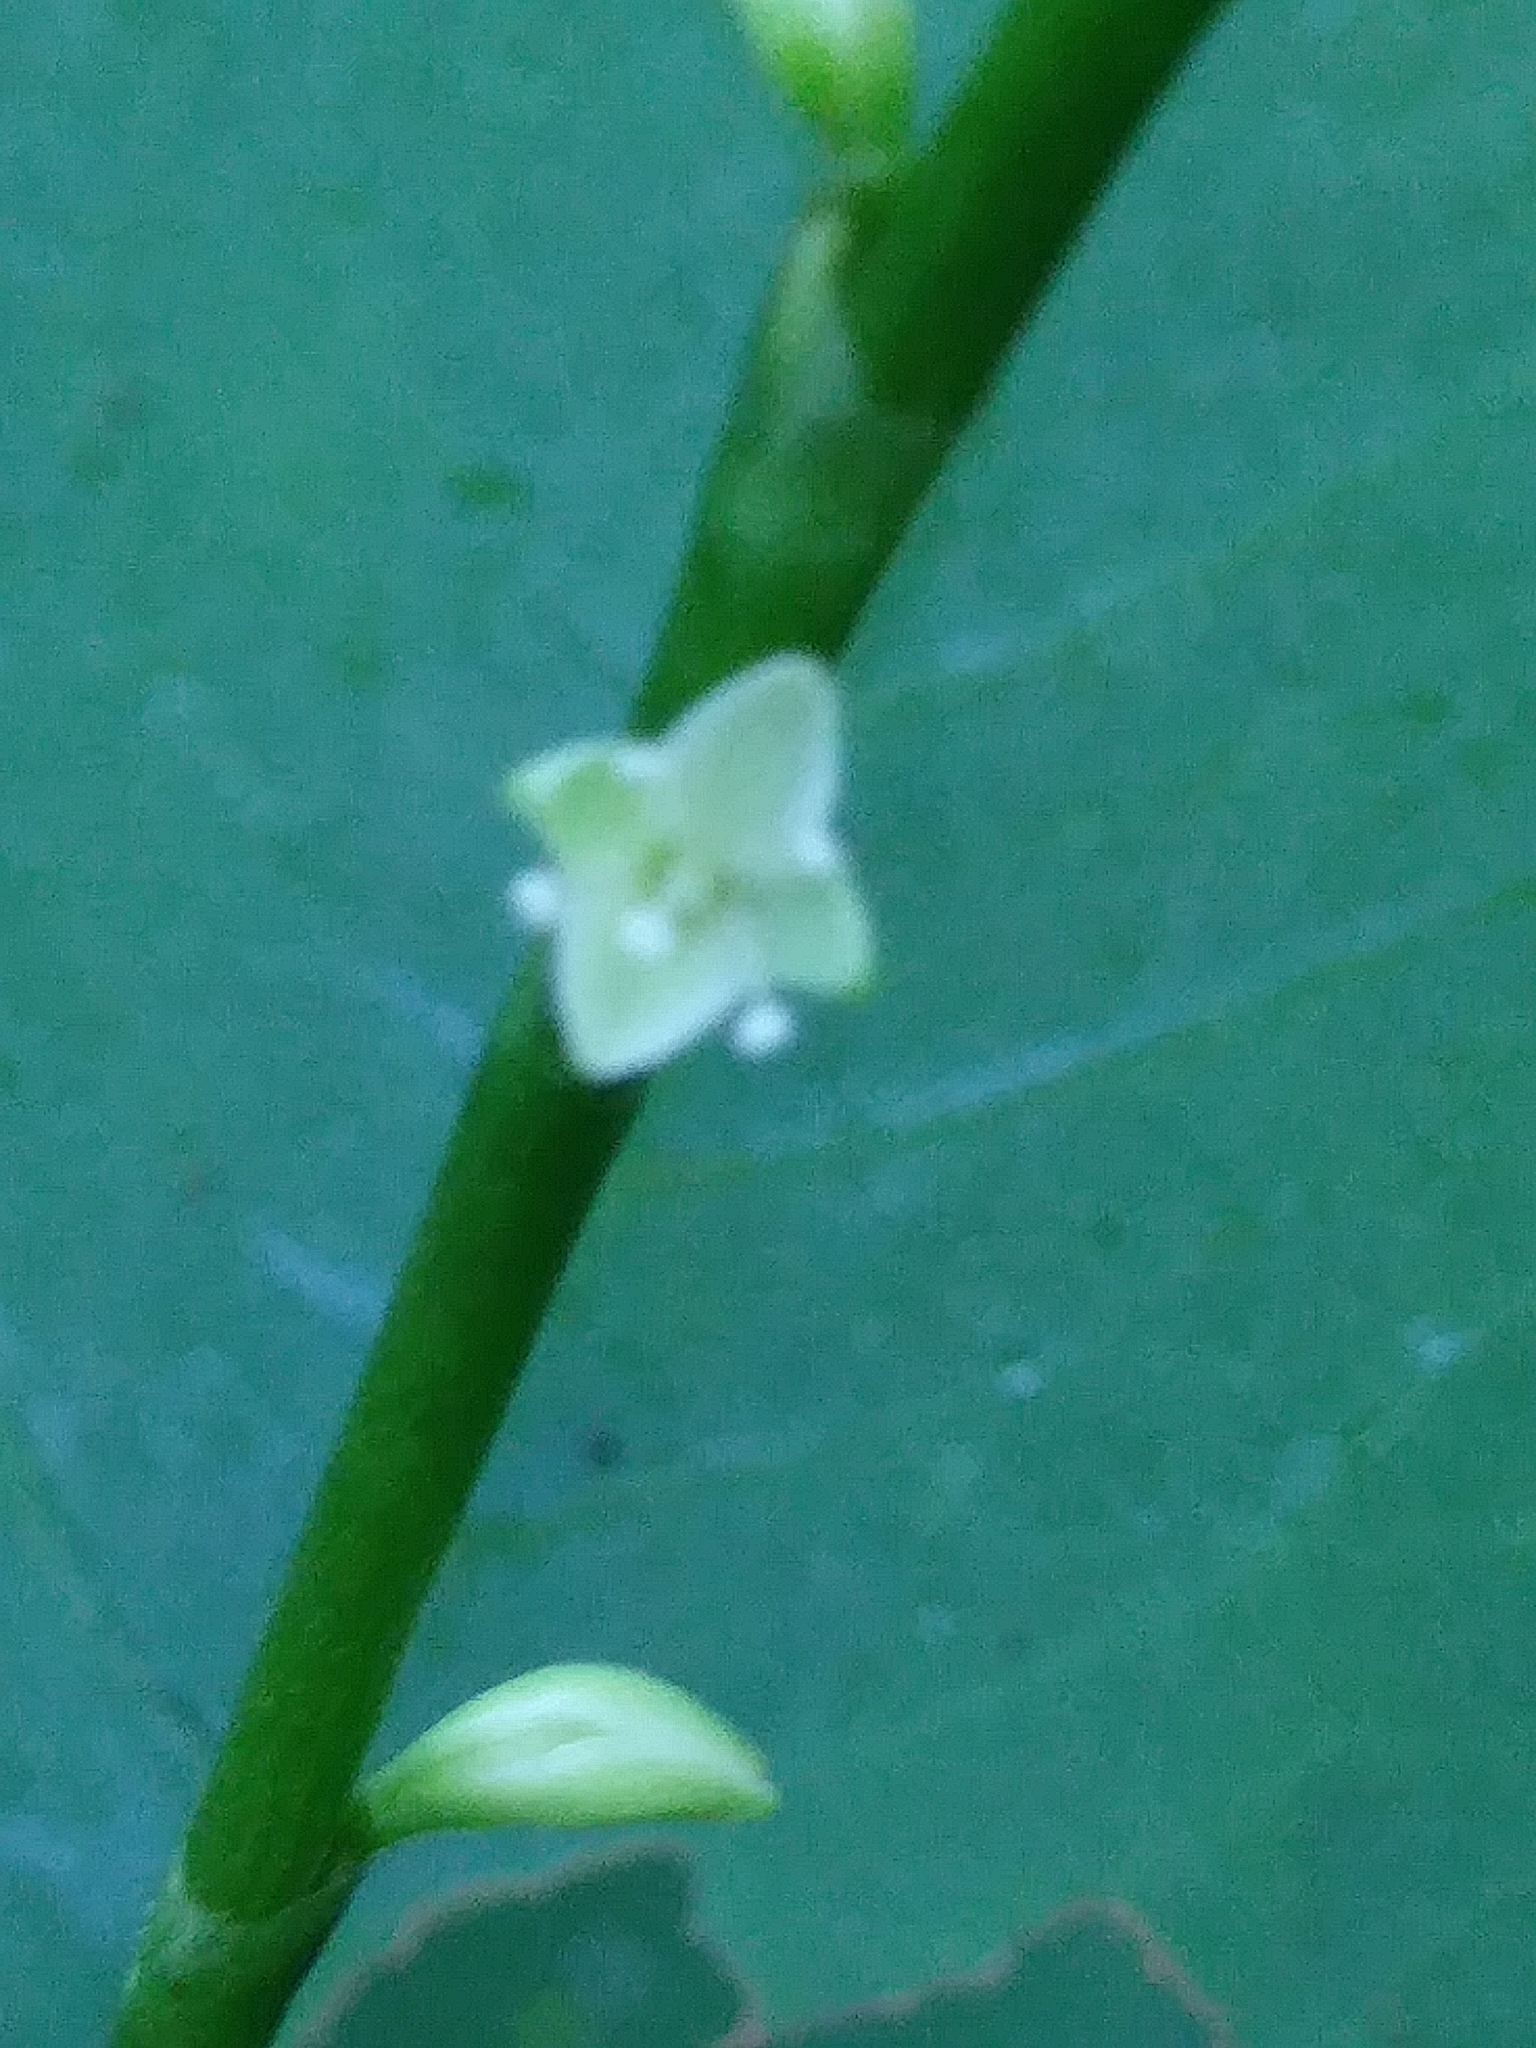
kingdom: Plantae
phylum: Tracheophyta
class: Magnoliopsida
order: Caryophyllales
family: Polygonaceae
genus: Persicaria
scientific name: Persicaria virginiana
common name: Jumpseed
